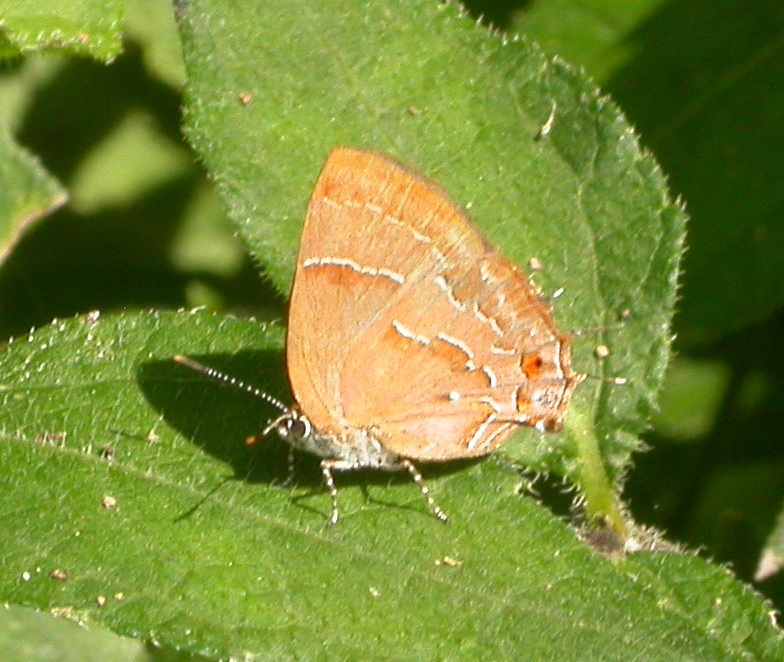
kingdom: Animalia
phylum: Arthropoda
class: Insecta
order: Lepidoptera
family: Lycaenidae
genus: Apuecla
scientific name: Apuecla
